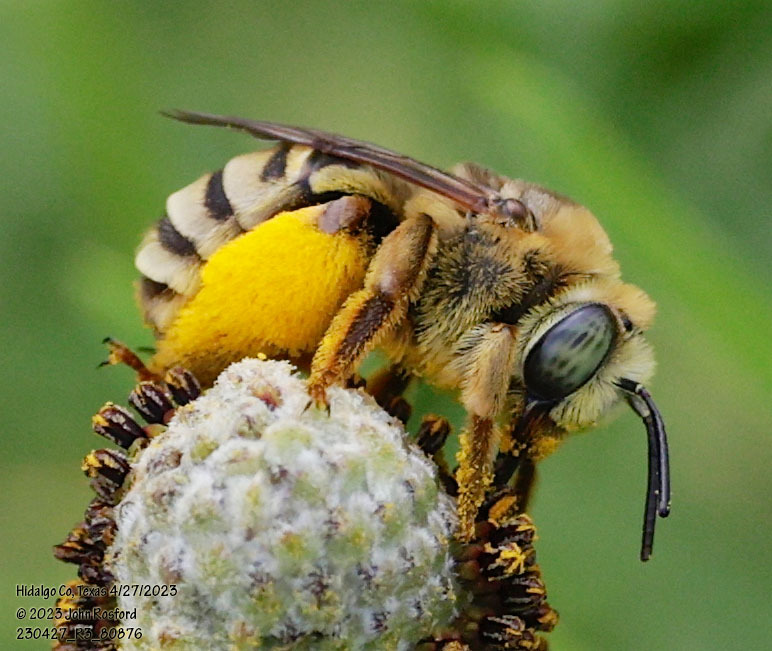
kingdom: Animalia
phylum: Arthropoda
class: Insecta
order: Hymenoptera
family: Apidae
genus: Svastra
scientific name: Svastra petulca
